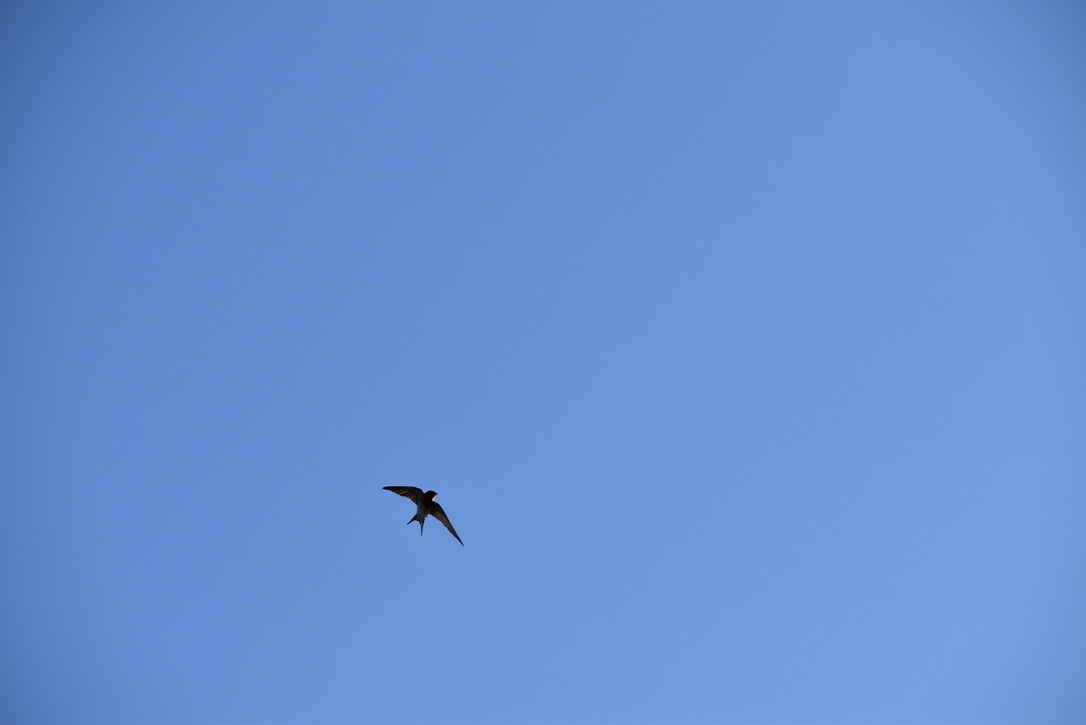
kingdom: Animalia
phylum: Chordata
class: Aves
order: Passeriformes
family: Hirundinidae
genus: Hirundo
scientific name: Hirundo neoxena
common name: Welcome swallow
